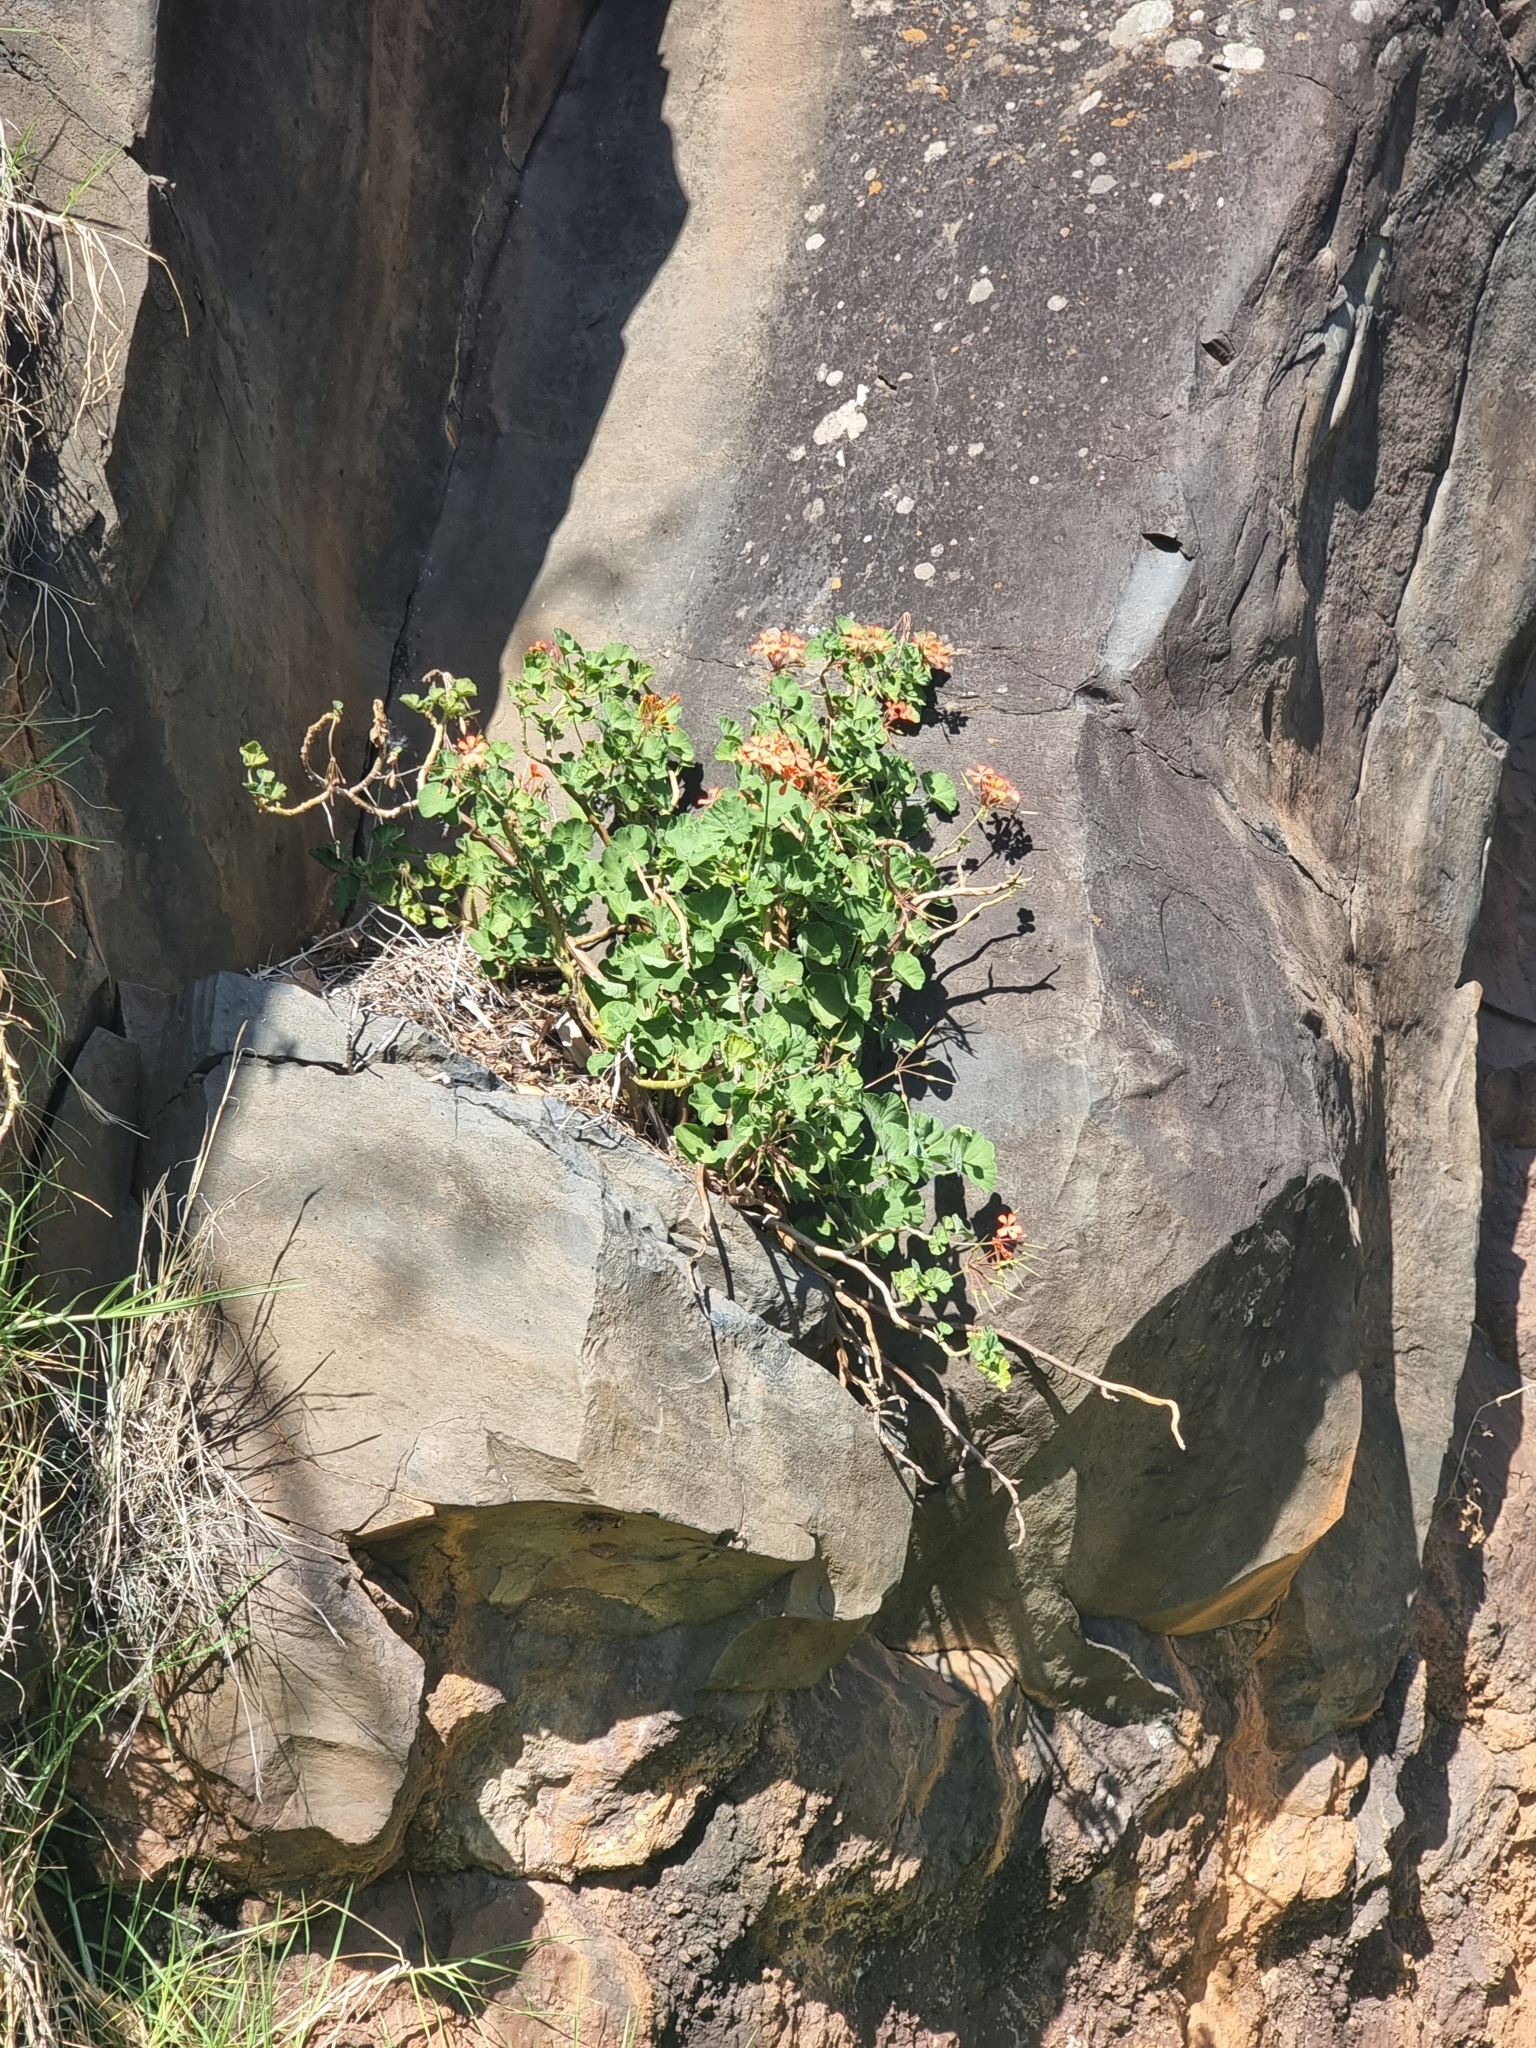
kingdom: Plantae
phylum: Tracheophyta
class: Magnoliopsida
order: Geraniales
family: Geraniaceae
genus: Pelargonium
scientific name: Pelargonium hybridum
